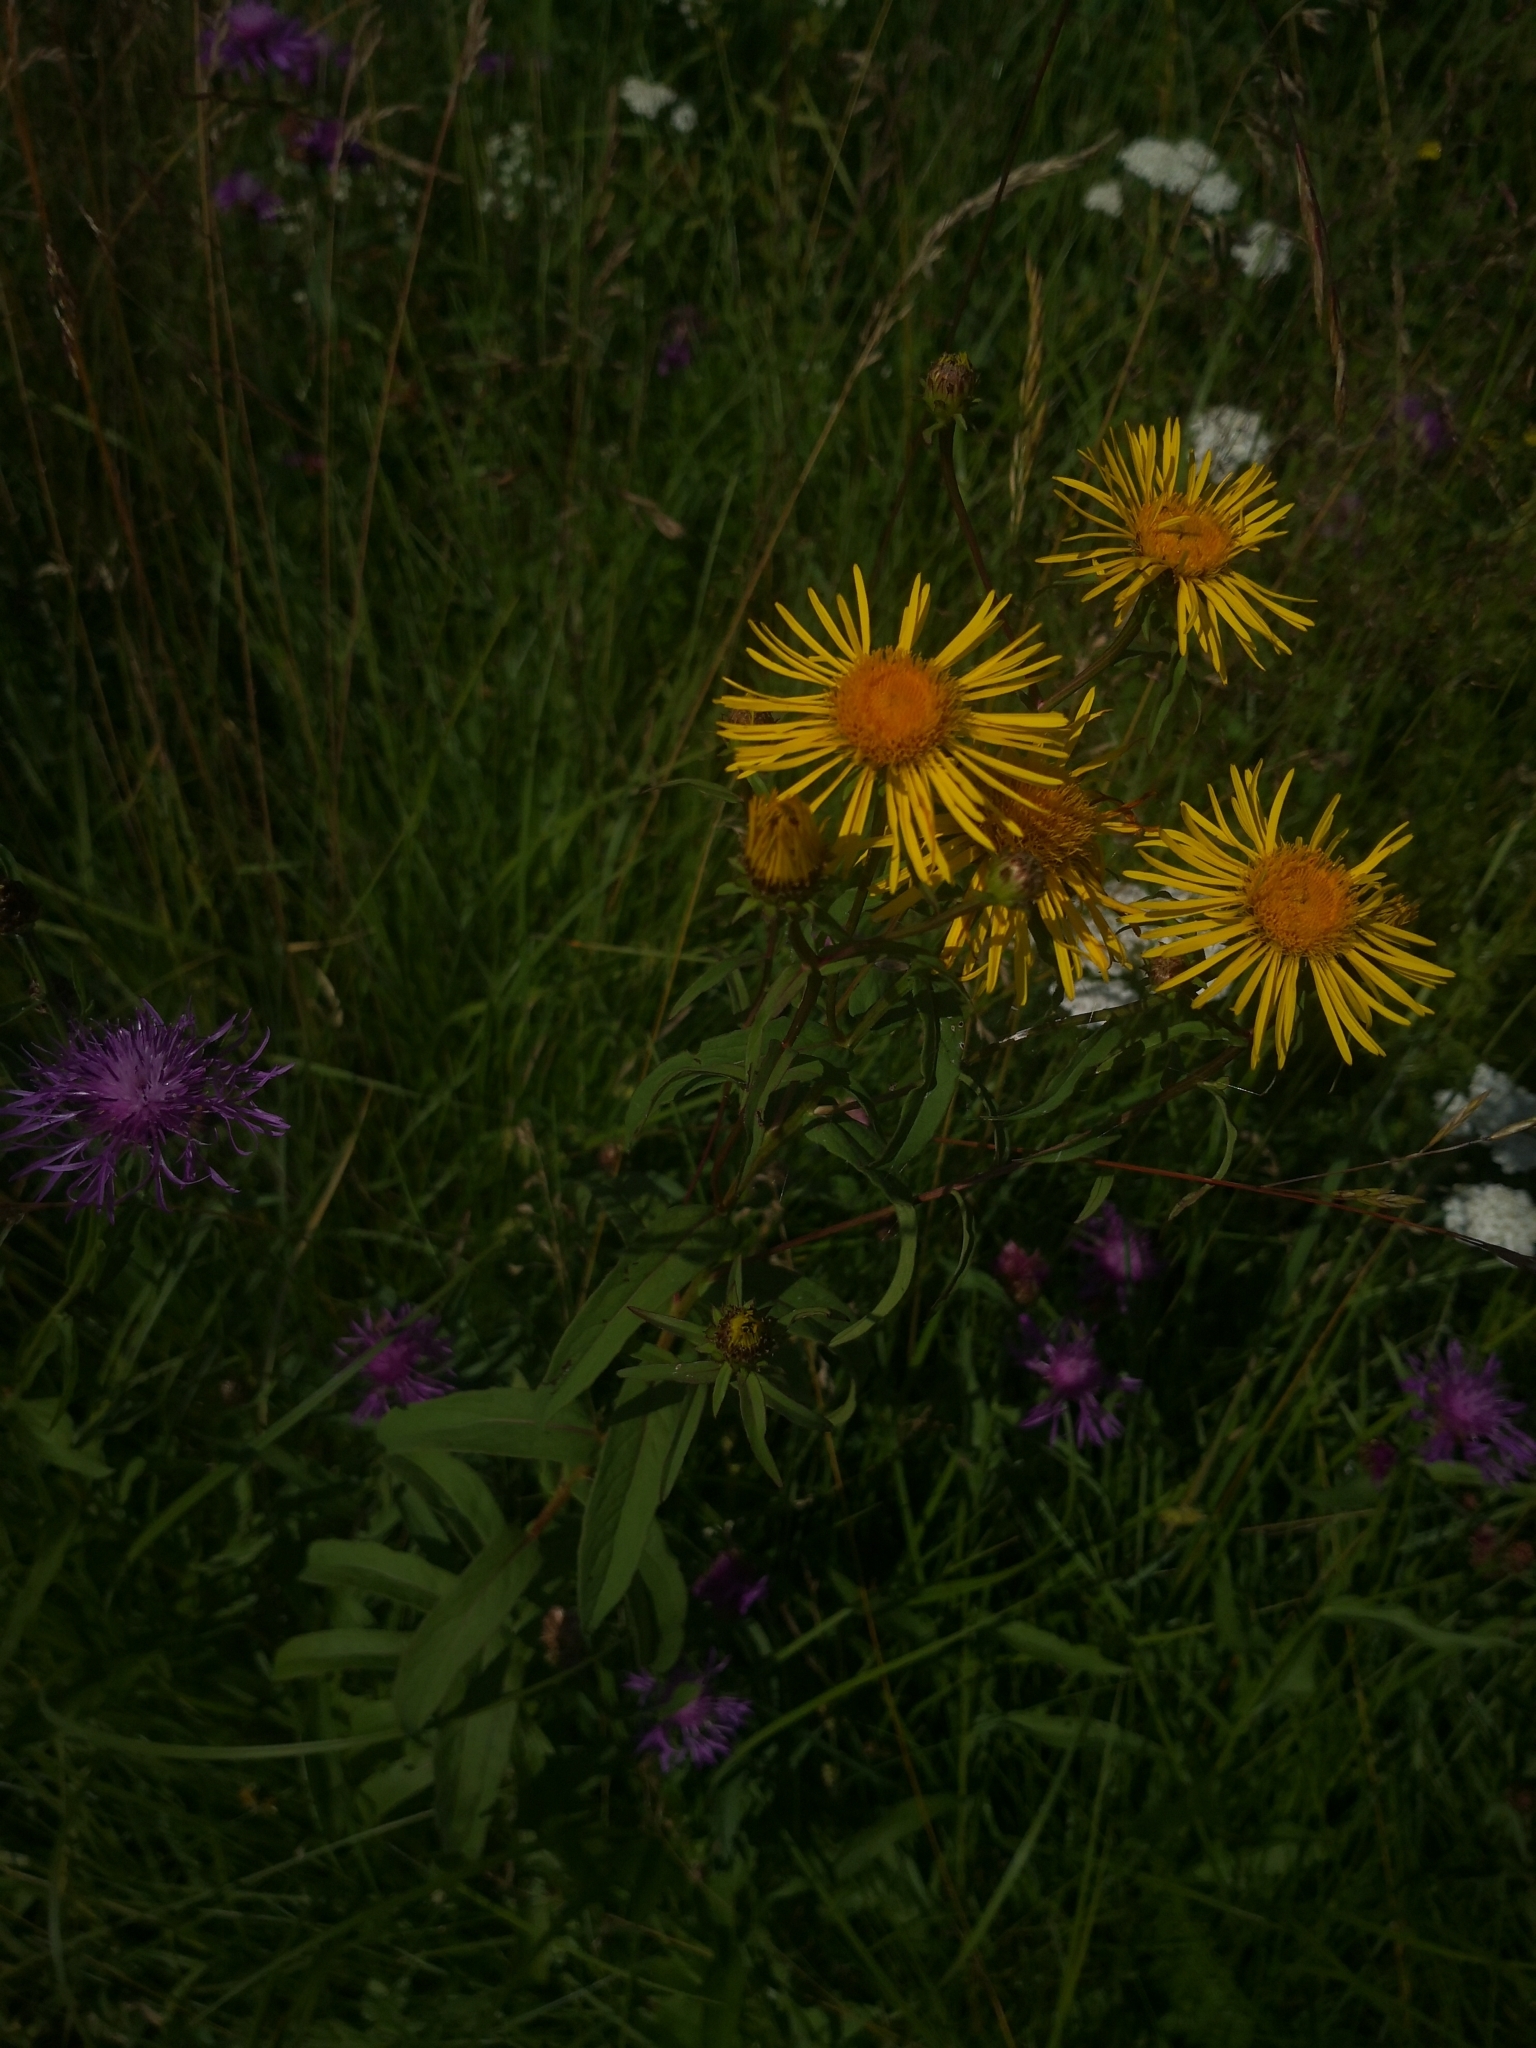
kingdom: Plantae
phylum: Tracheophyta
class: Magnoliopsida
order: Asterales
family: Asteraceae
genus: Pentanema
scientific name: Pentanema salicinum
